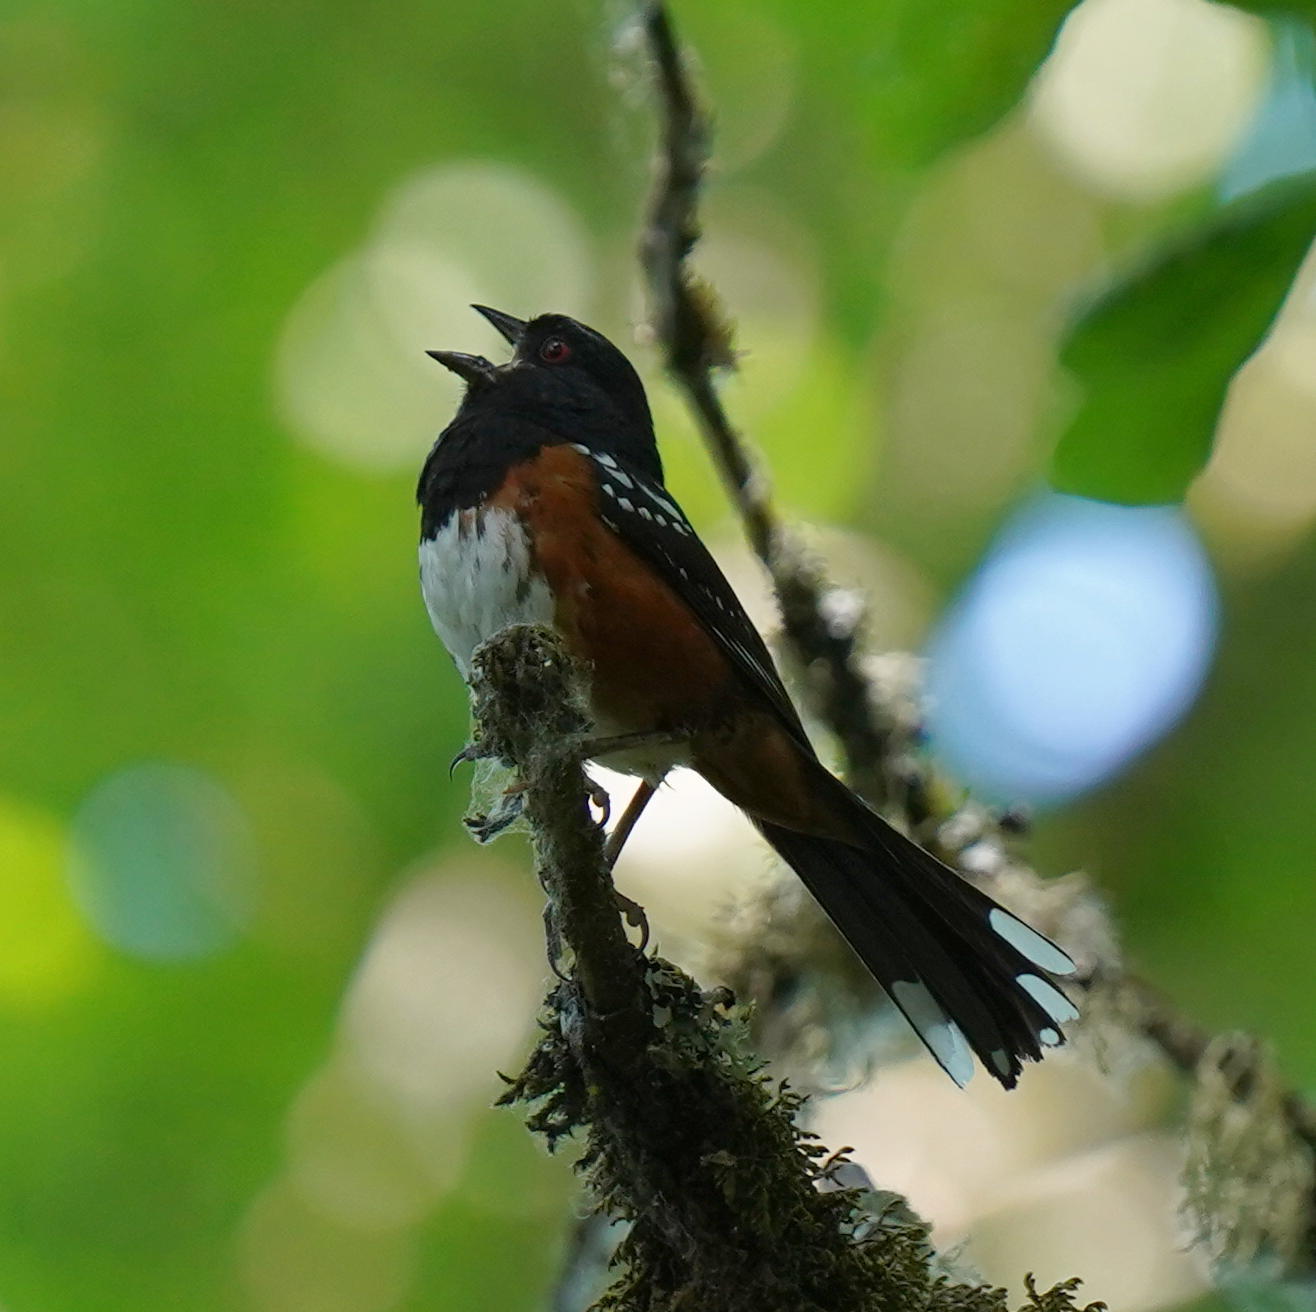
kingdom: Animalia
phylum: Chordata
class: Aves
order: Passeriformes
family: Passerellidae
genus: Pipilo
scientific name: Pipilo maculatus
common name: Spotted towhee
